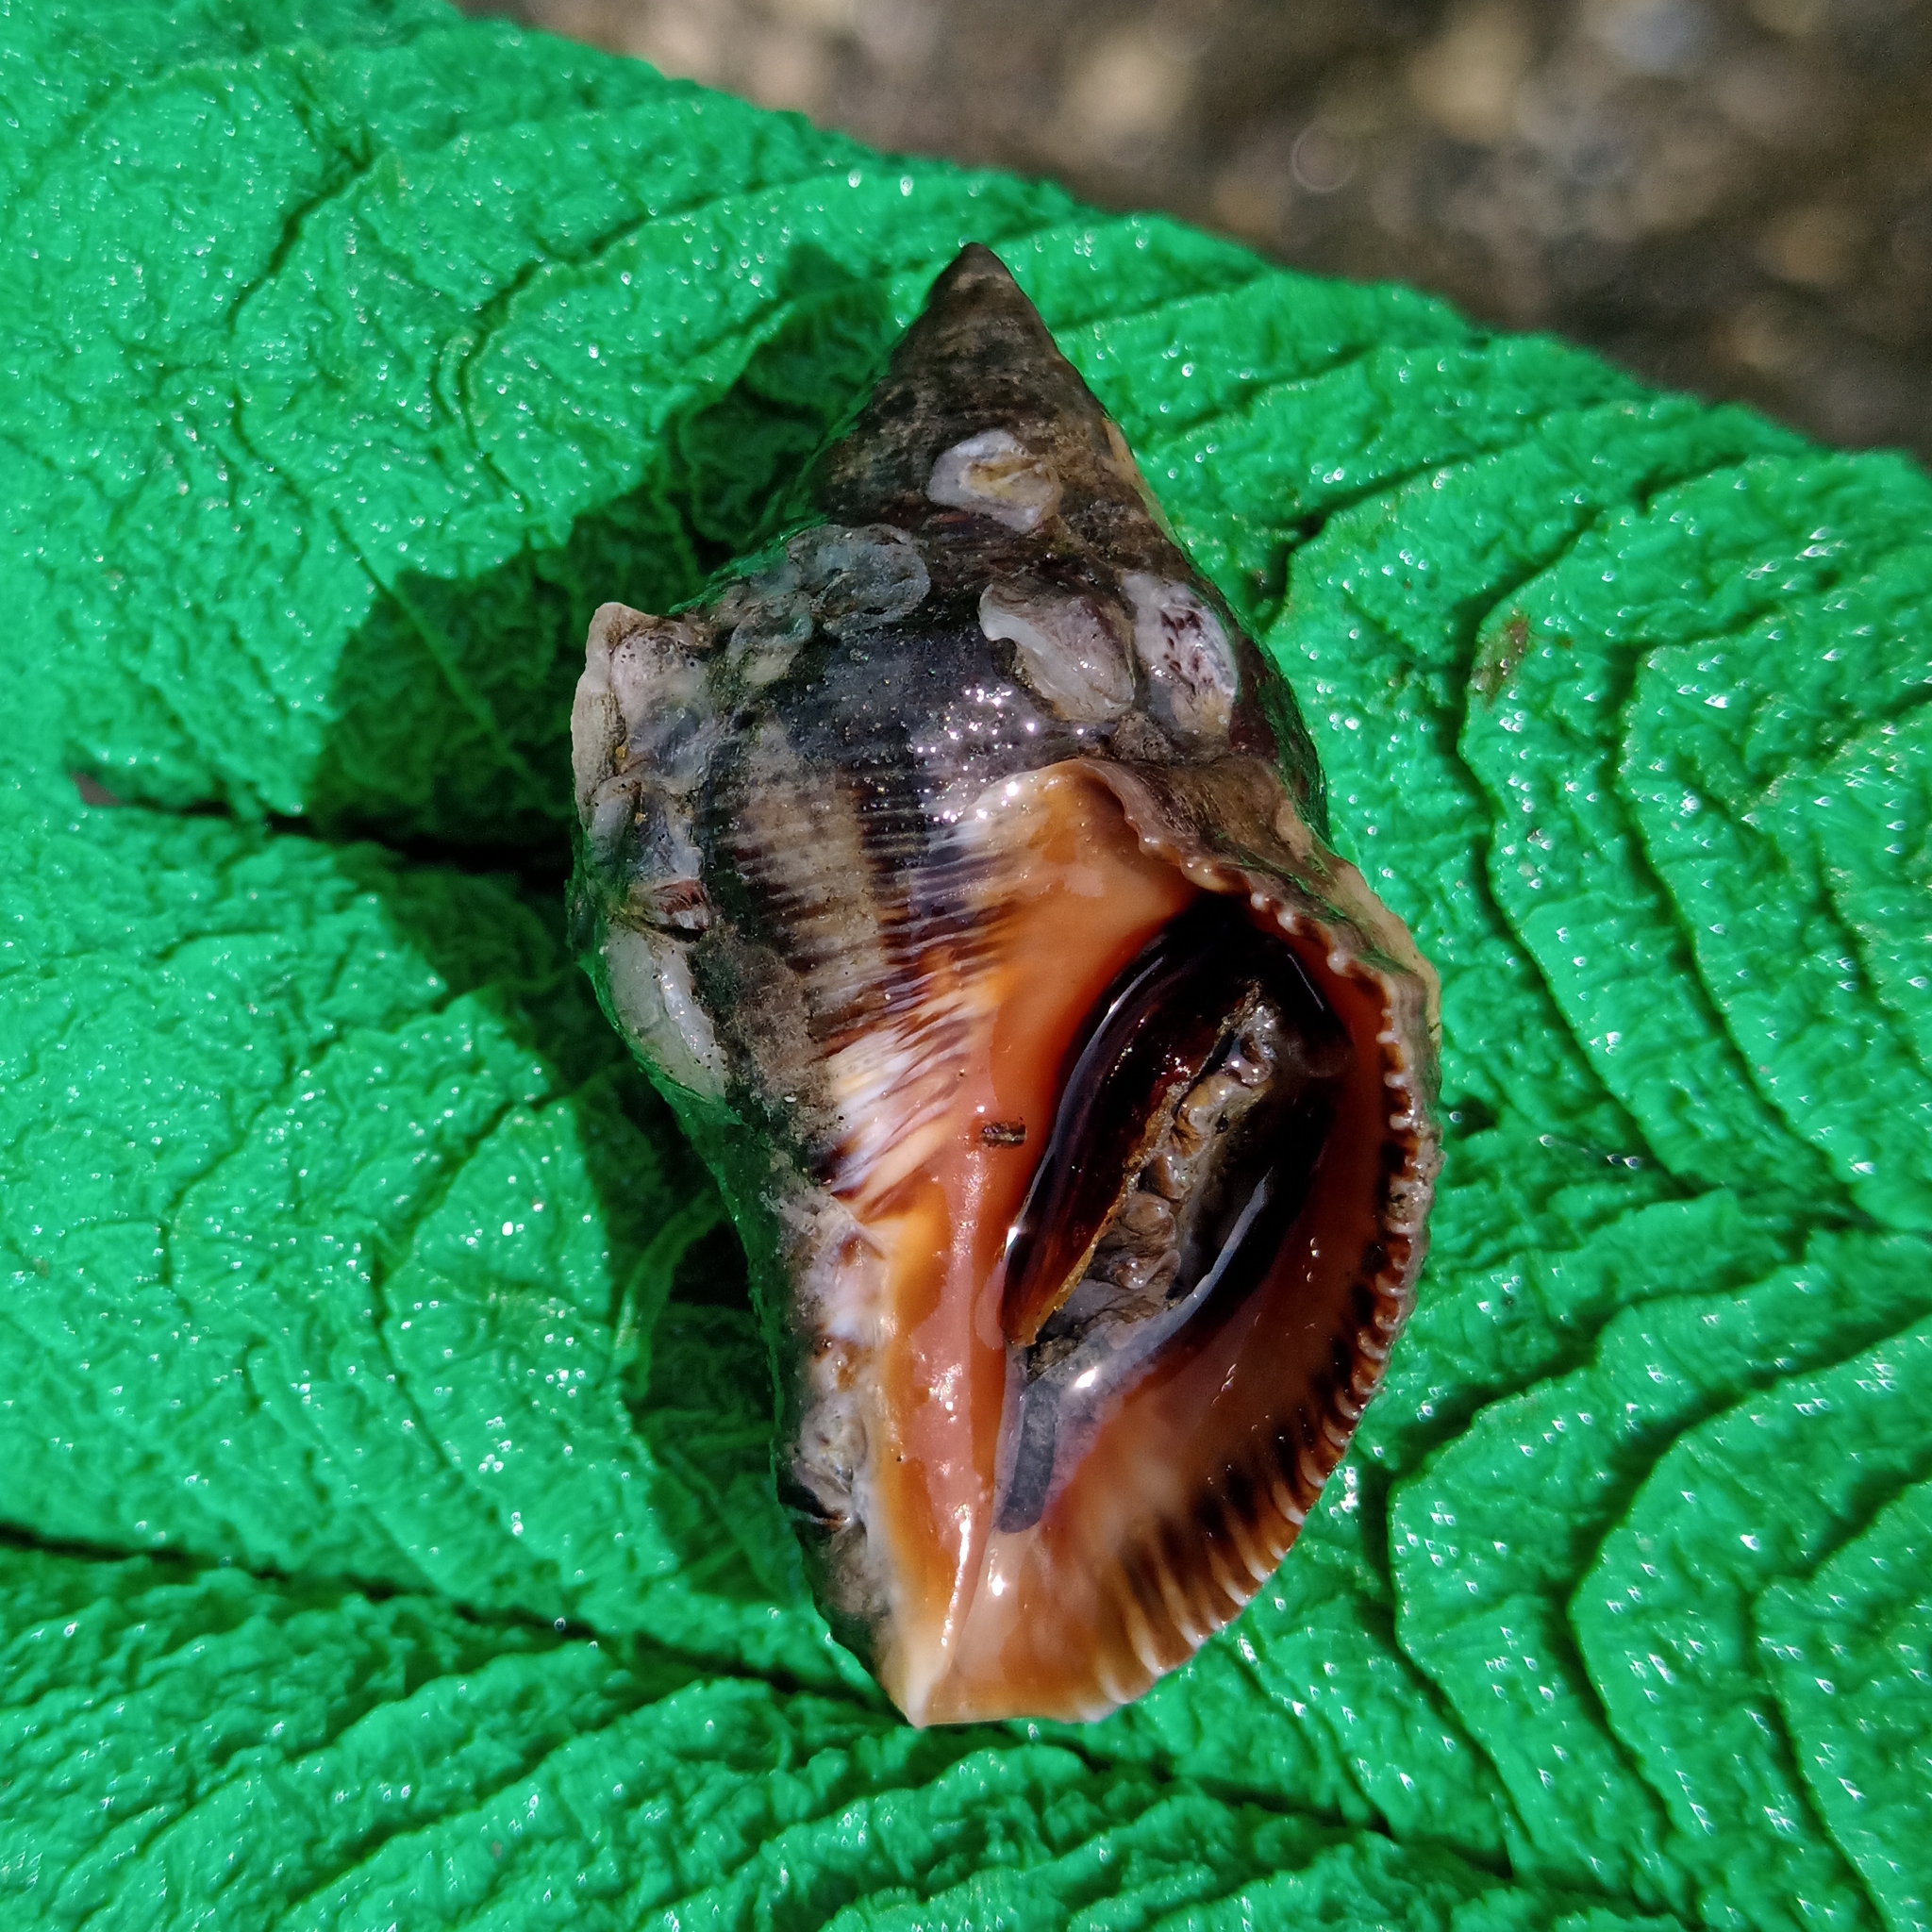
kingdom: Animalia
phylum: Mollusca
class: Gastropoda
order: Neogastropoda
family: Muricidae
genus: Stramonita
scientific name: Stramonita brasiliensis
